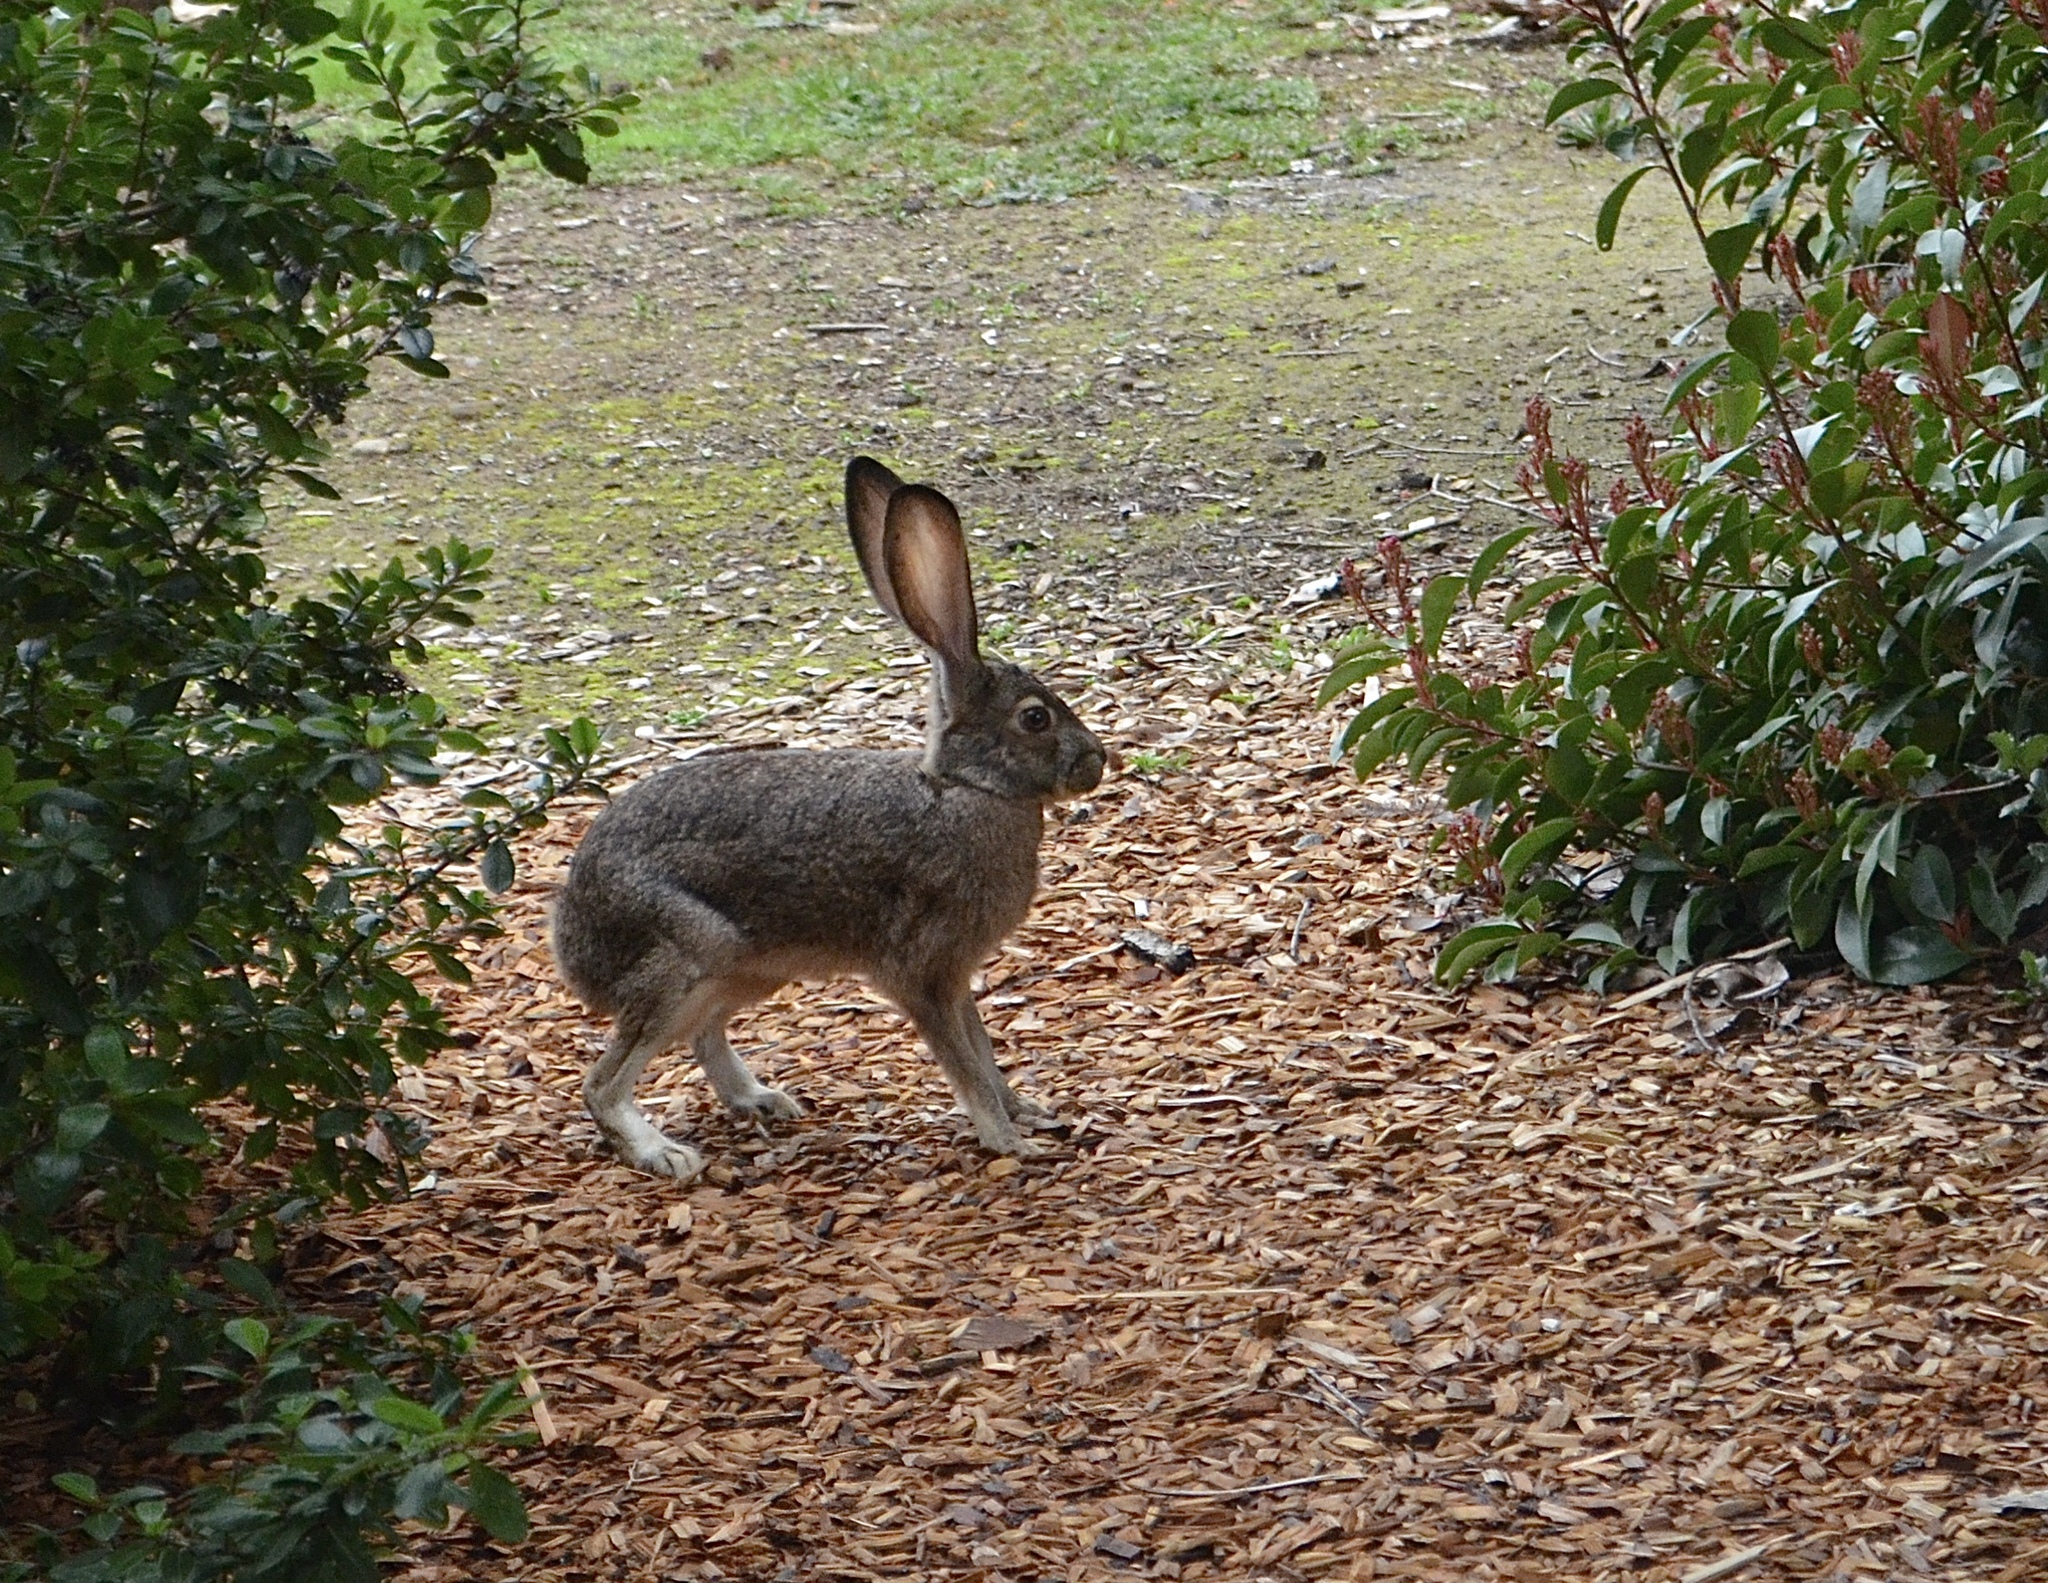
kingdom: Animalia
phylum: Chordata
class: Mammalia
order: Lagomorpha
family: Leporidae
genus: Lepus
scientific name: Lepus californicus
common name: Black-tailed jackrabbit
